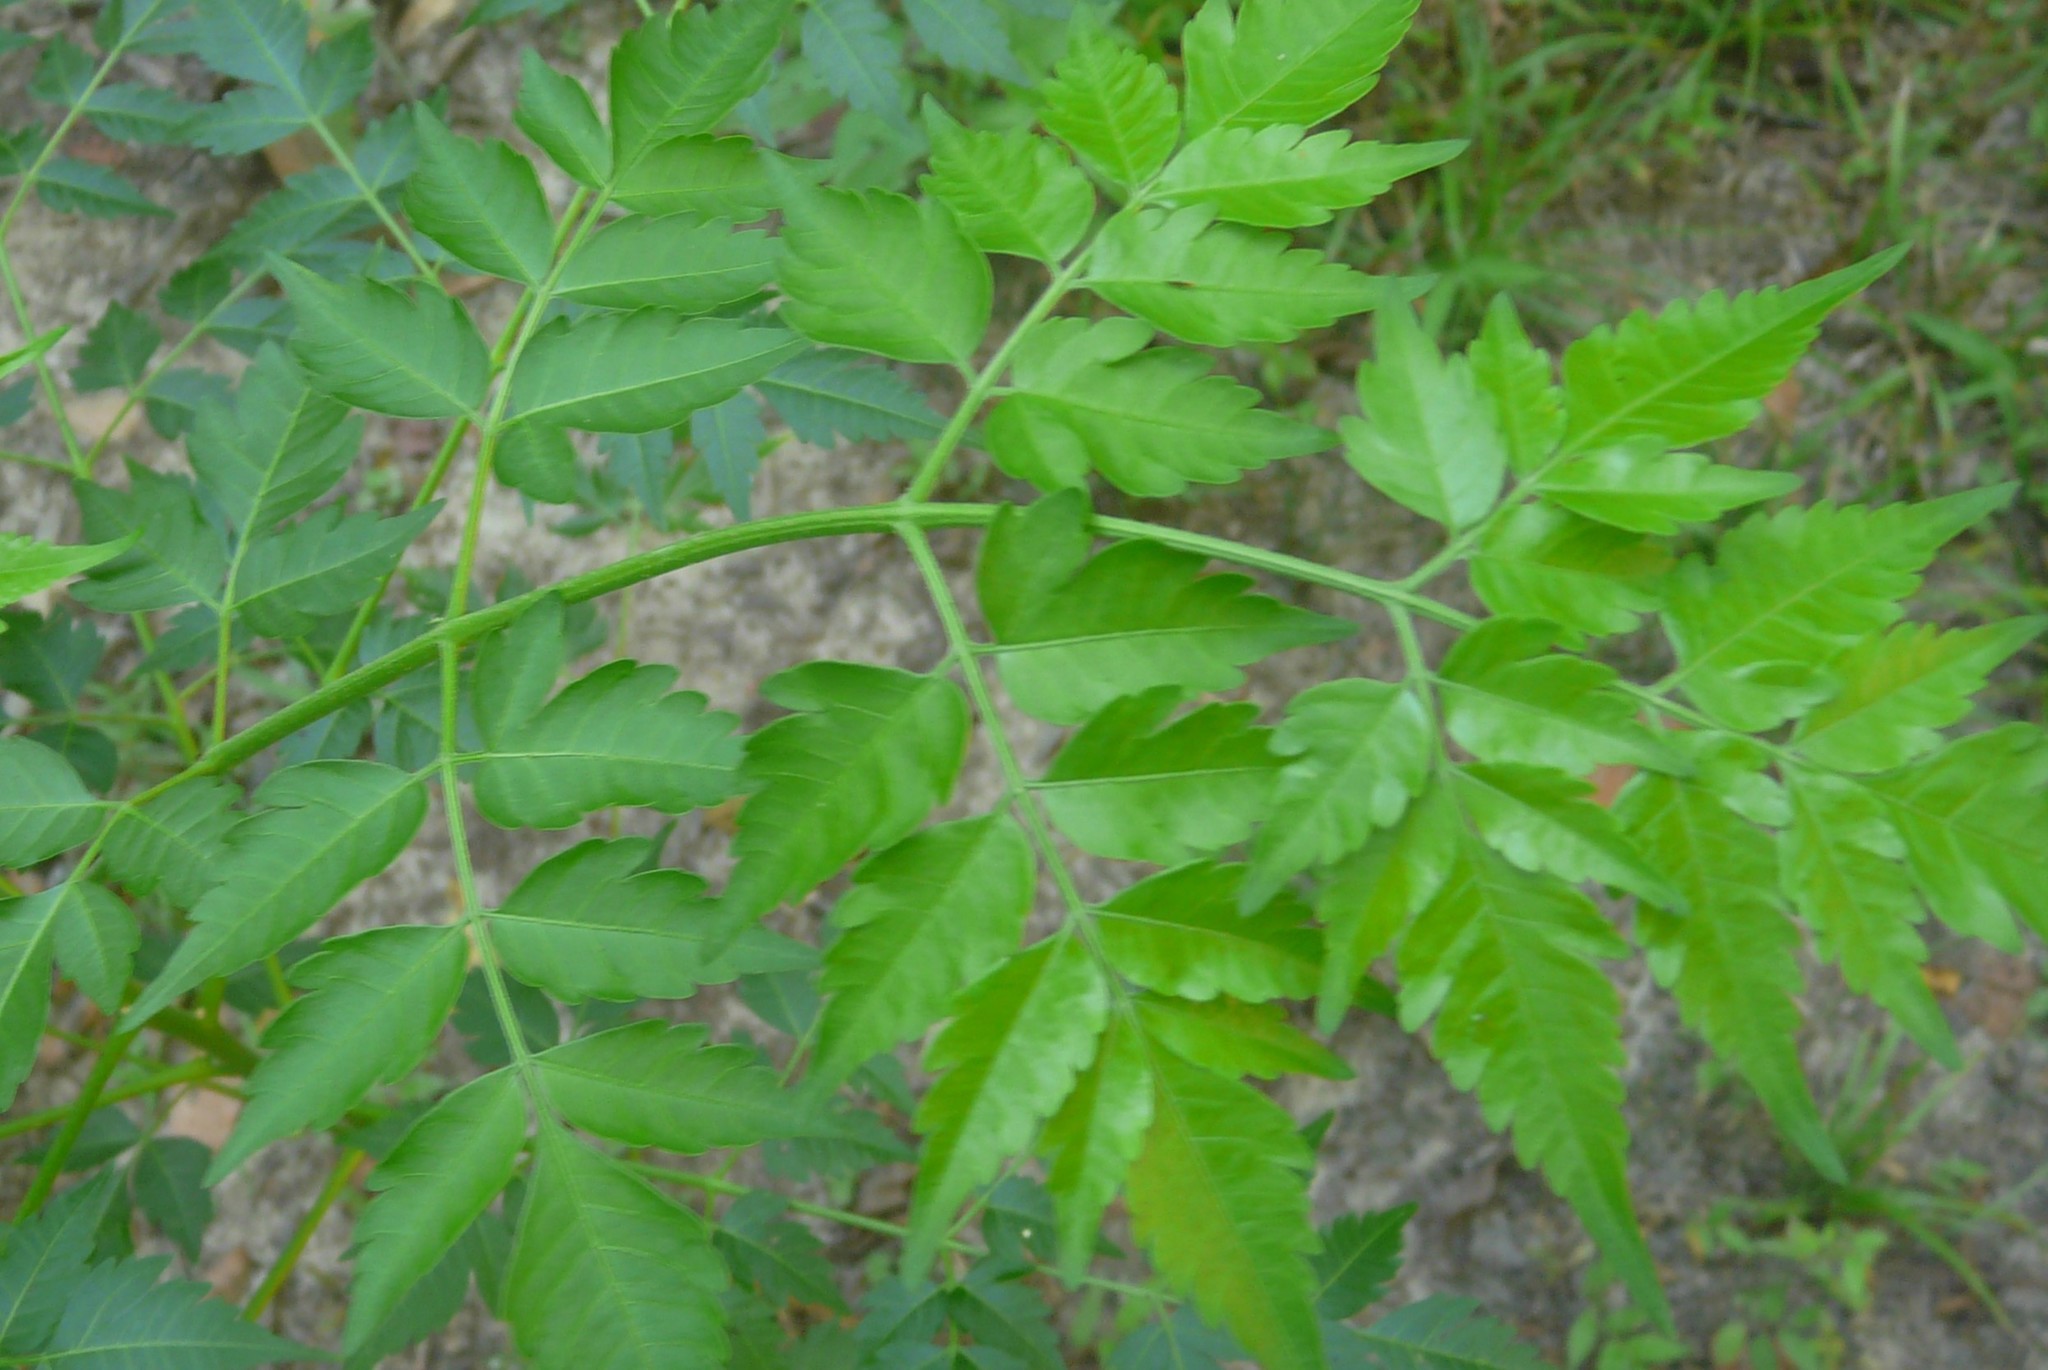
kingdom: Plantae
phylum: Tracheophyta
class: Magnoliopsida
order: Sapindales
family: Meliaceae
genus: Melia
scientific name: Melia azedarach
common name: Chinaberrytree
